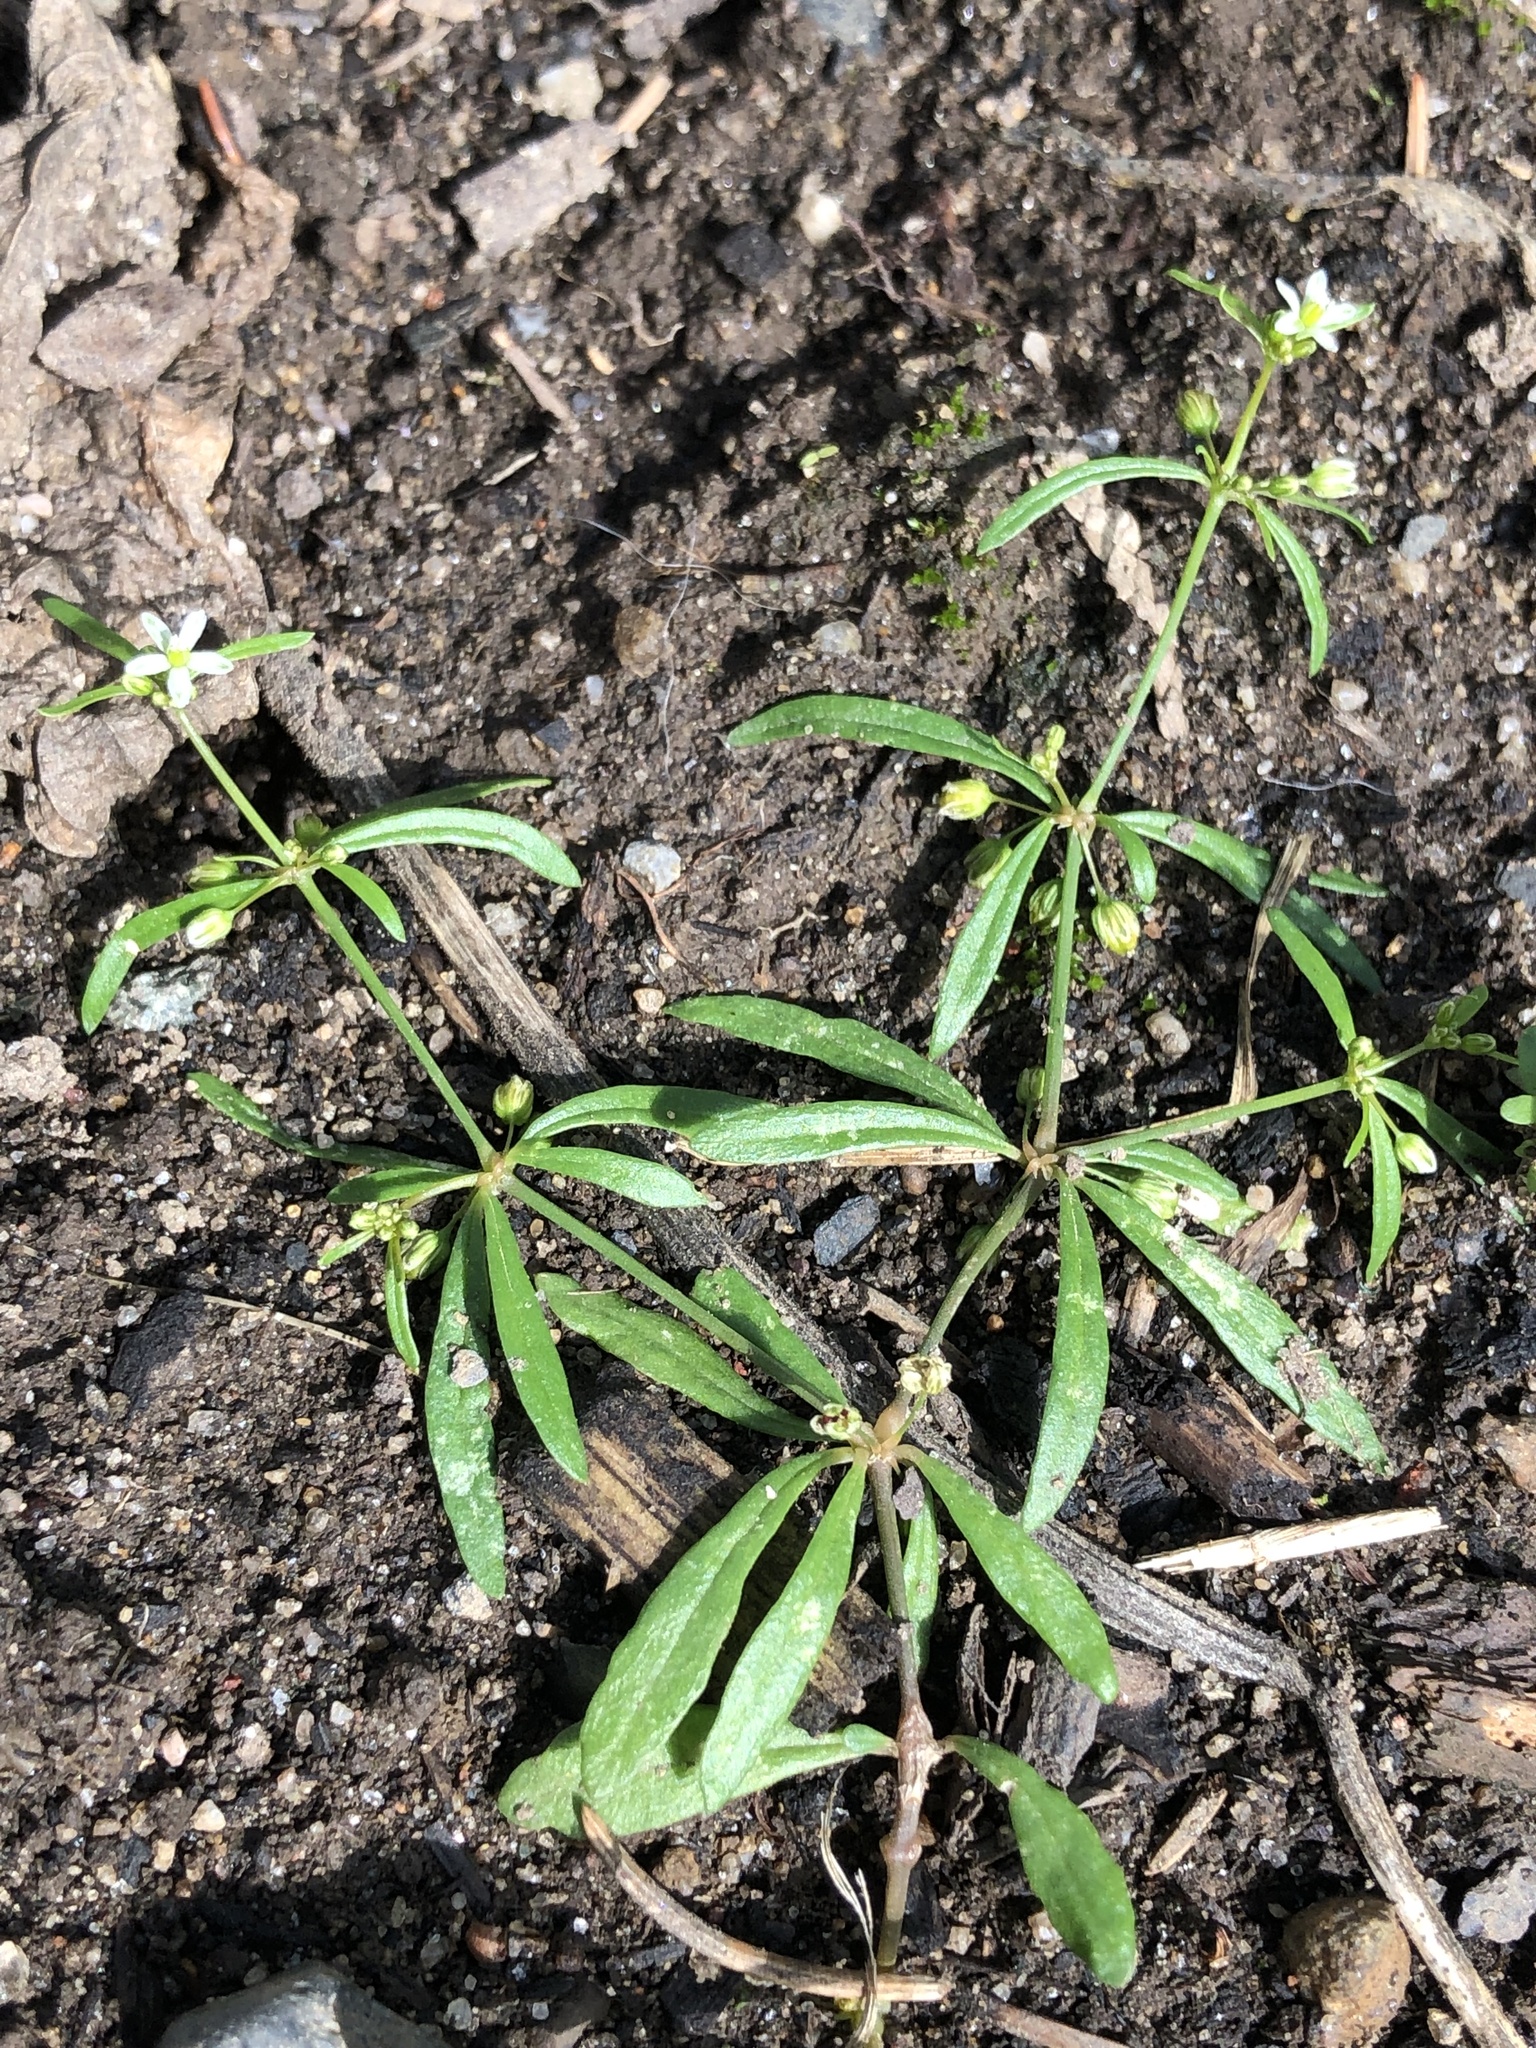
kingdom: Plantae
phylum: Tracheophyta
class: Magnoliopsida
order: Caryophyllales
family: Molluginaceae
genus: Mollugo
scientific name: Mollugo verticillata
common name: Green carpetweed
